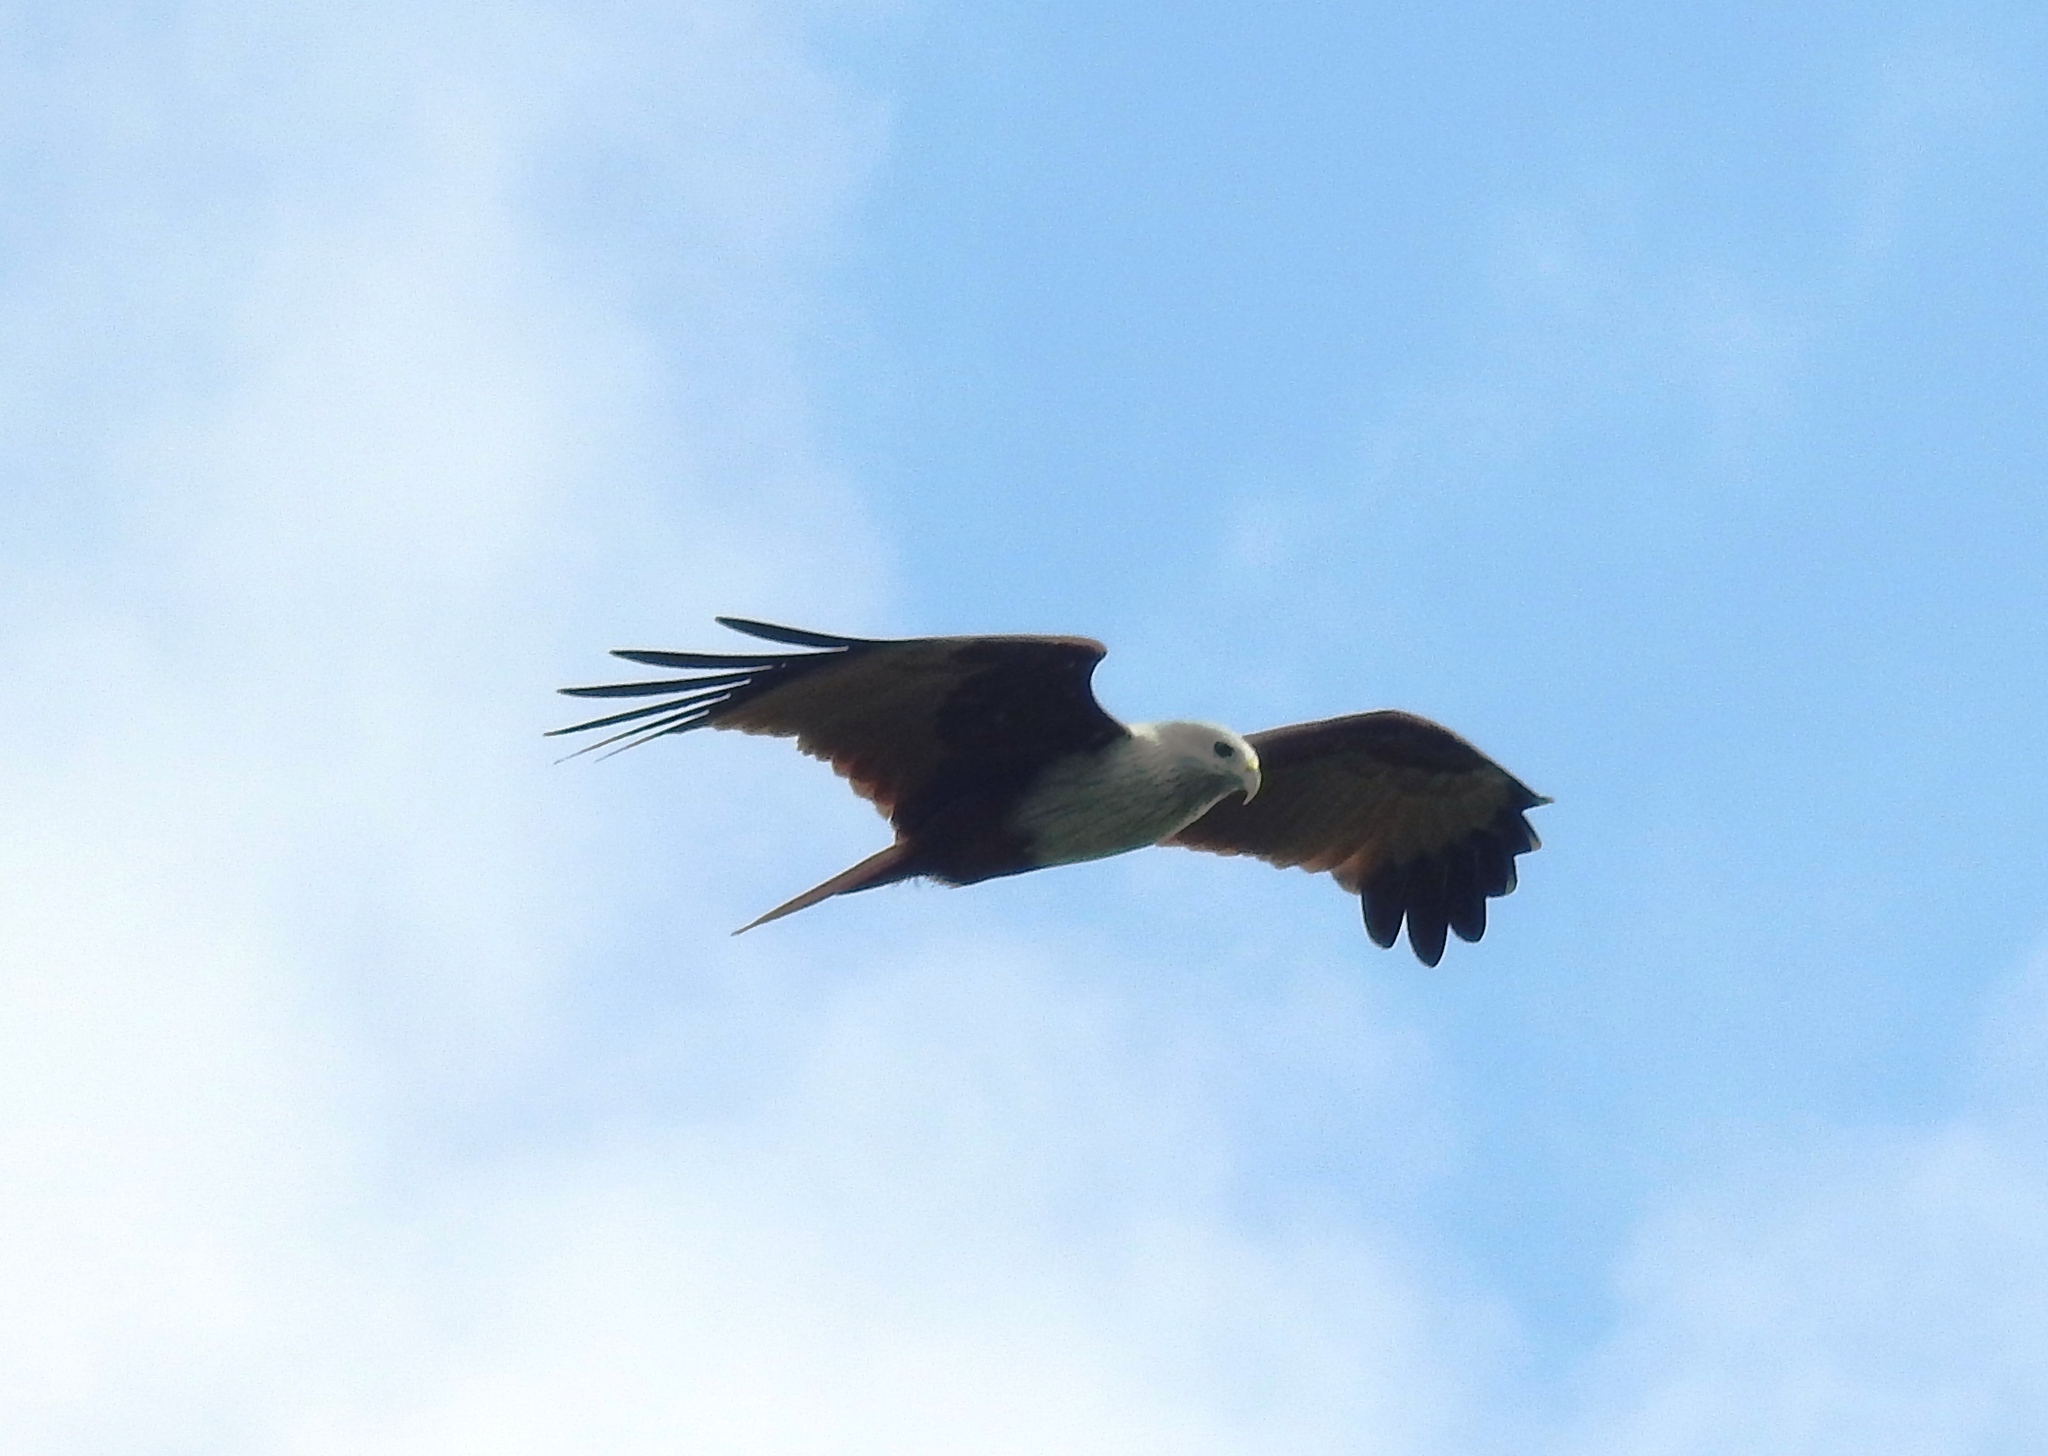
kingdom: Animalia
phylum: Chordata
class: Aves
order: Accipitriformes
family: Accipitridae
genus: Haliastur
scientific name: Haliastur indus
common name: Brahminy kite
